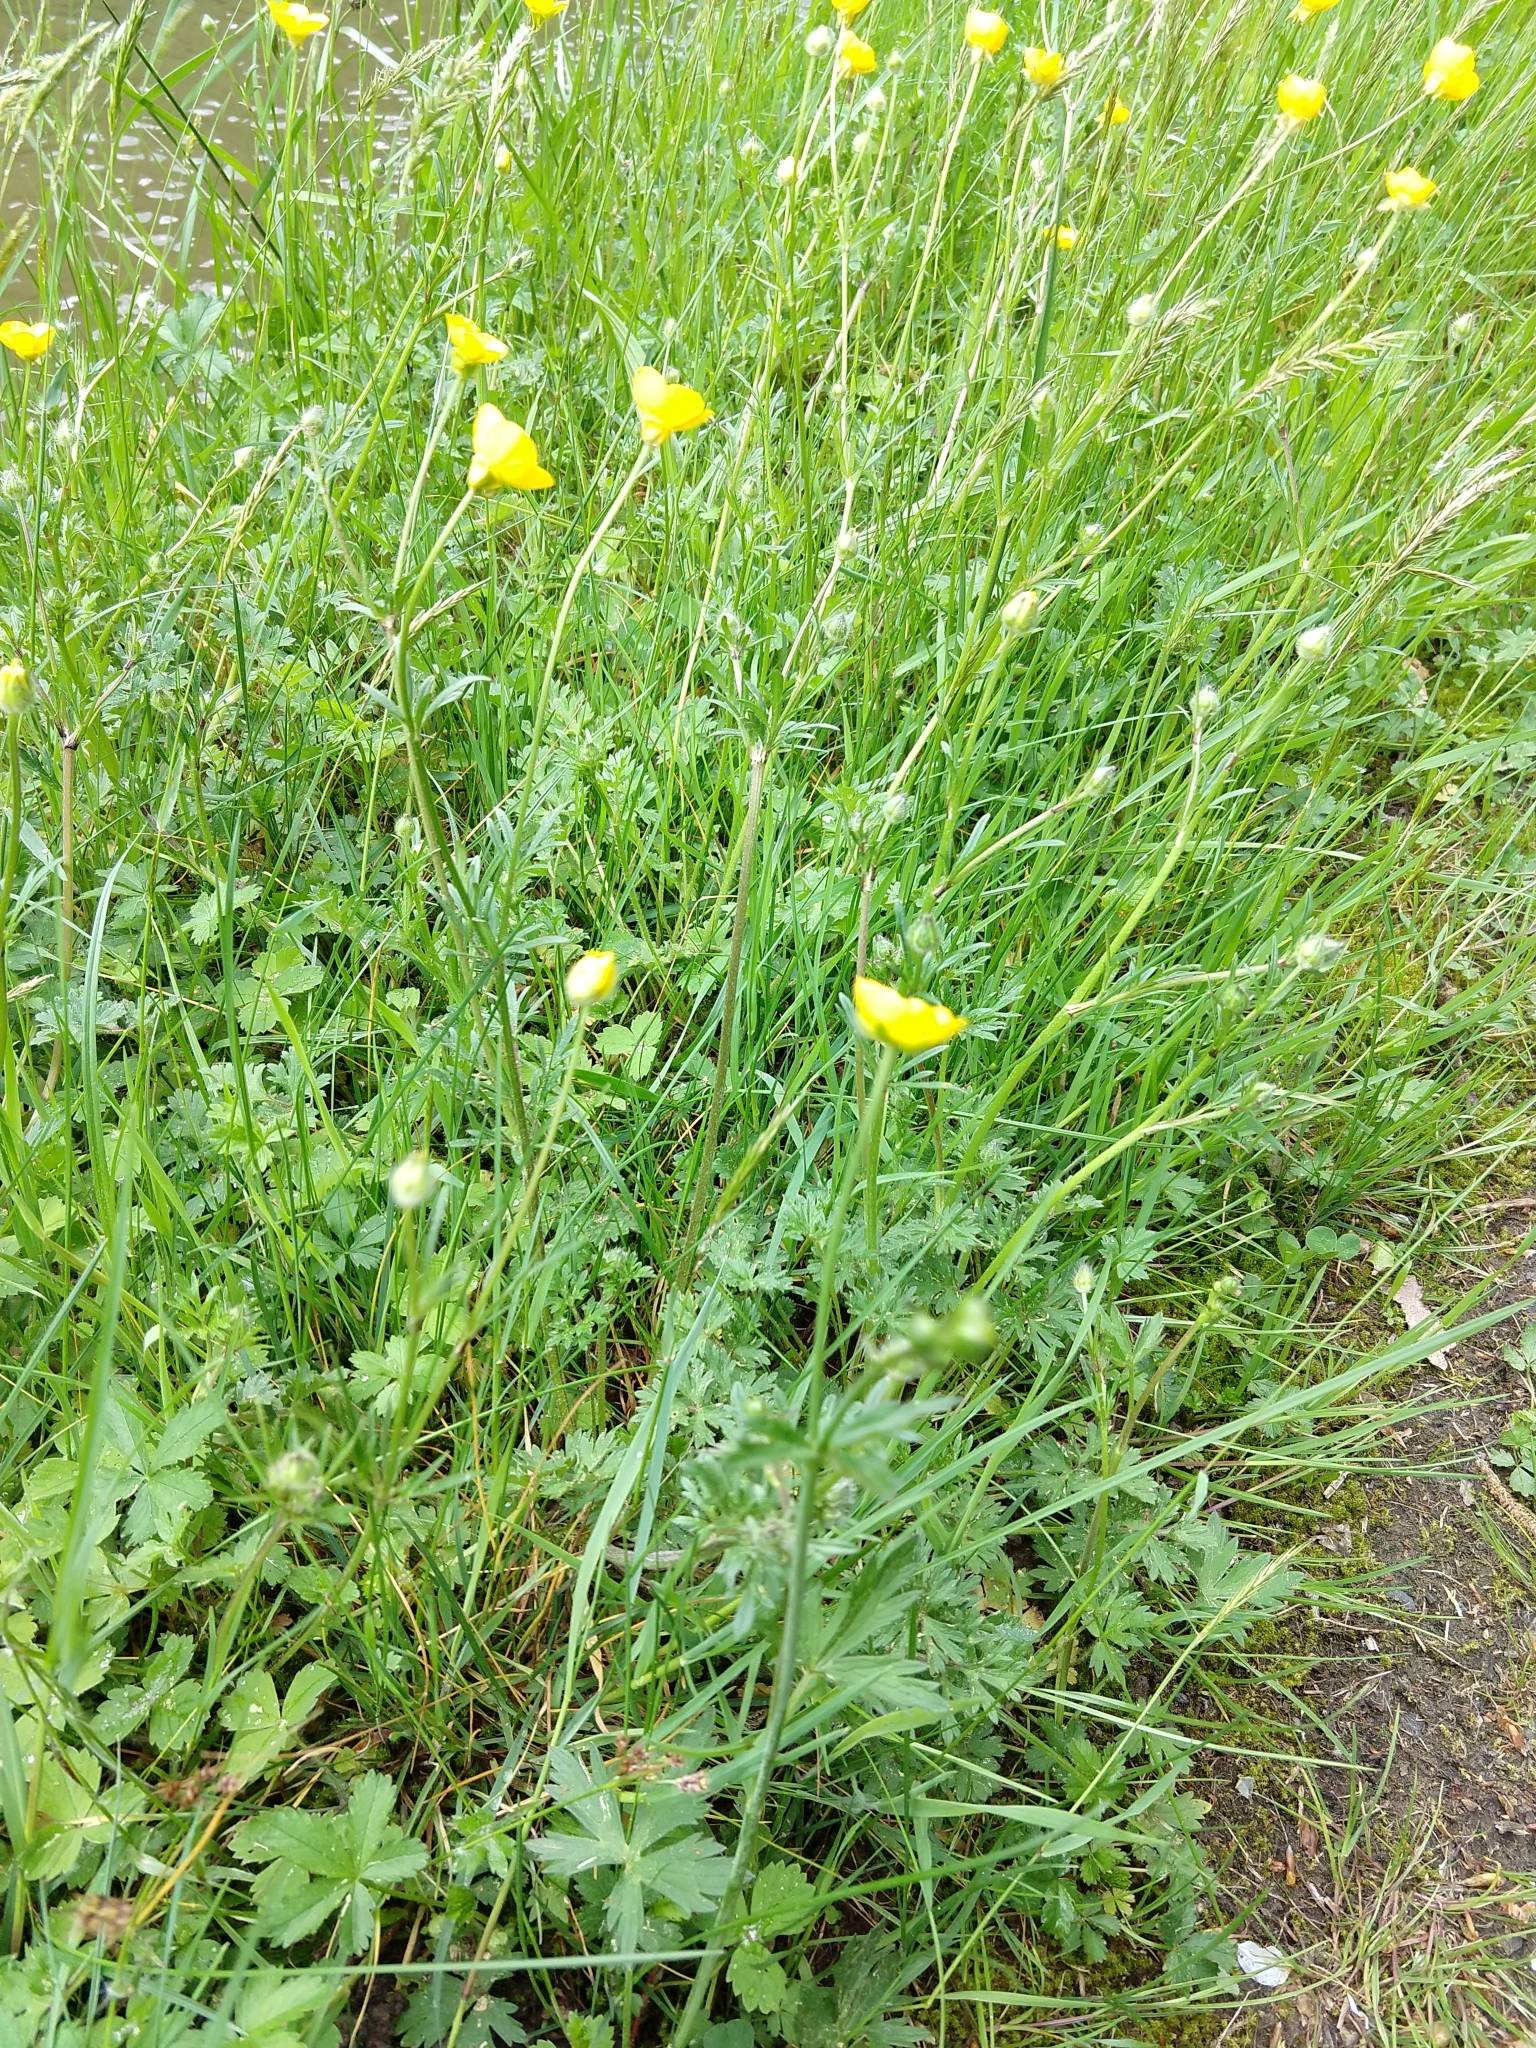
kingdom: Plantae
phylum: Tracheophyta
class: Magnoliopsida
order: Ranunculales
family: Ranunculaceae
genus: Ranunculus
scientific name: Ranunculus bulbosus
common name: Bulbous buttercup
